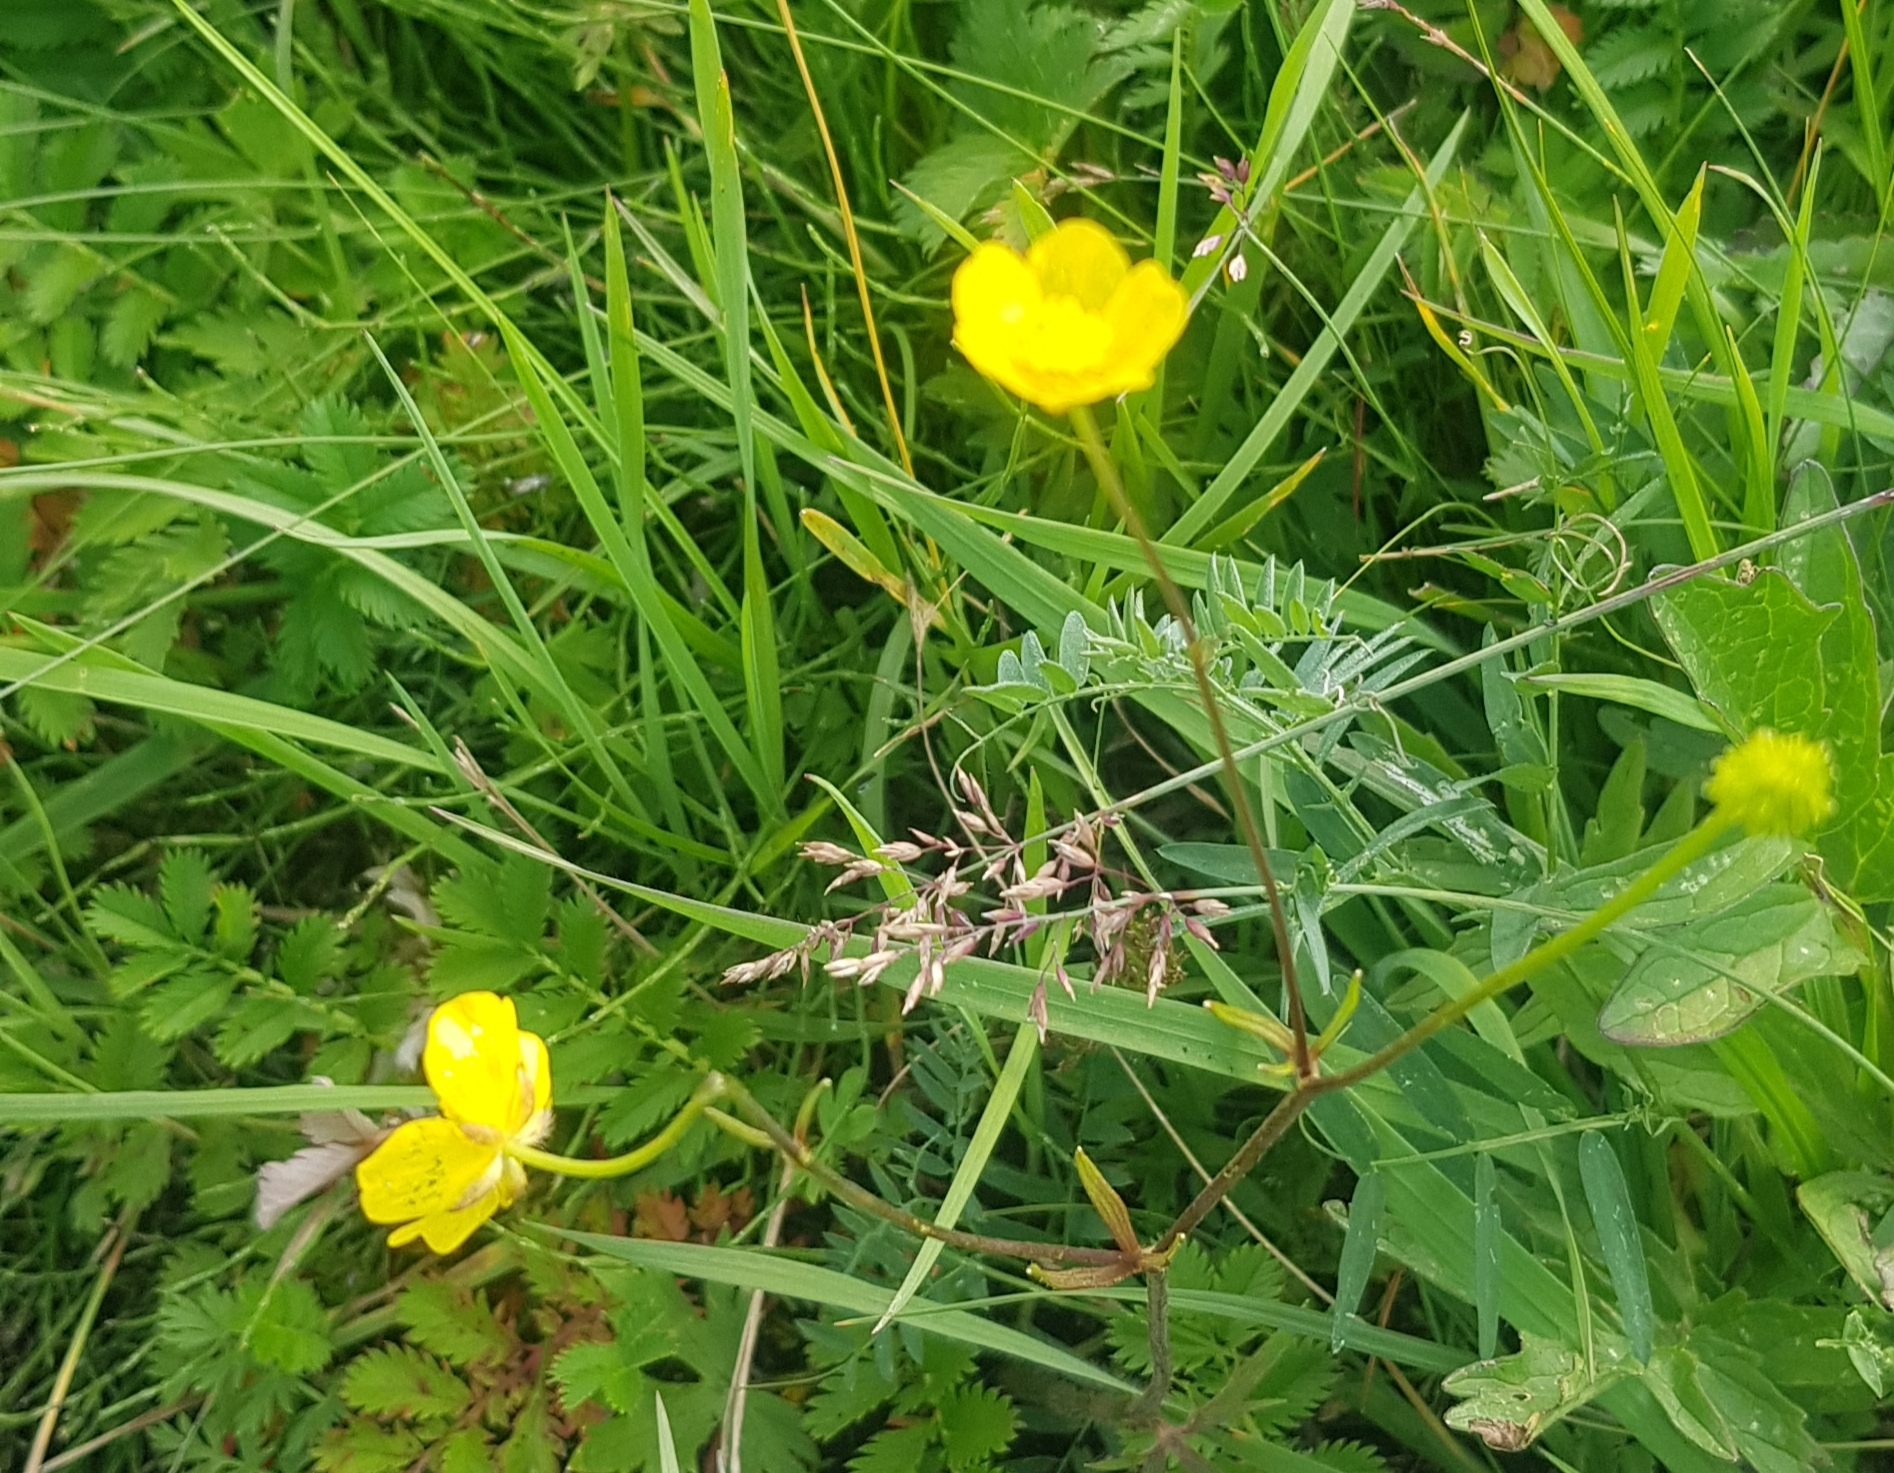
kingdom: Plantae
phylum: Tracheophyta
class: Magnoliopsida
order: Ranunculales
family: Ranunculaceae
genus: Ranunculus
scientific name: Ranunculus acris
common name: Meadow buttercup
